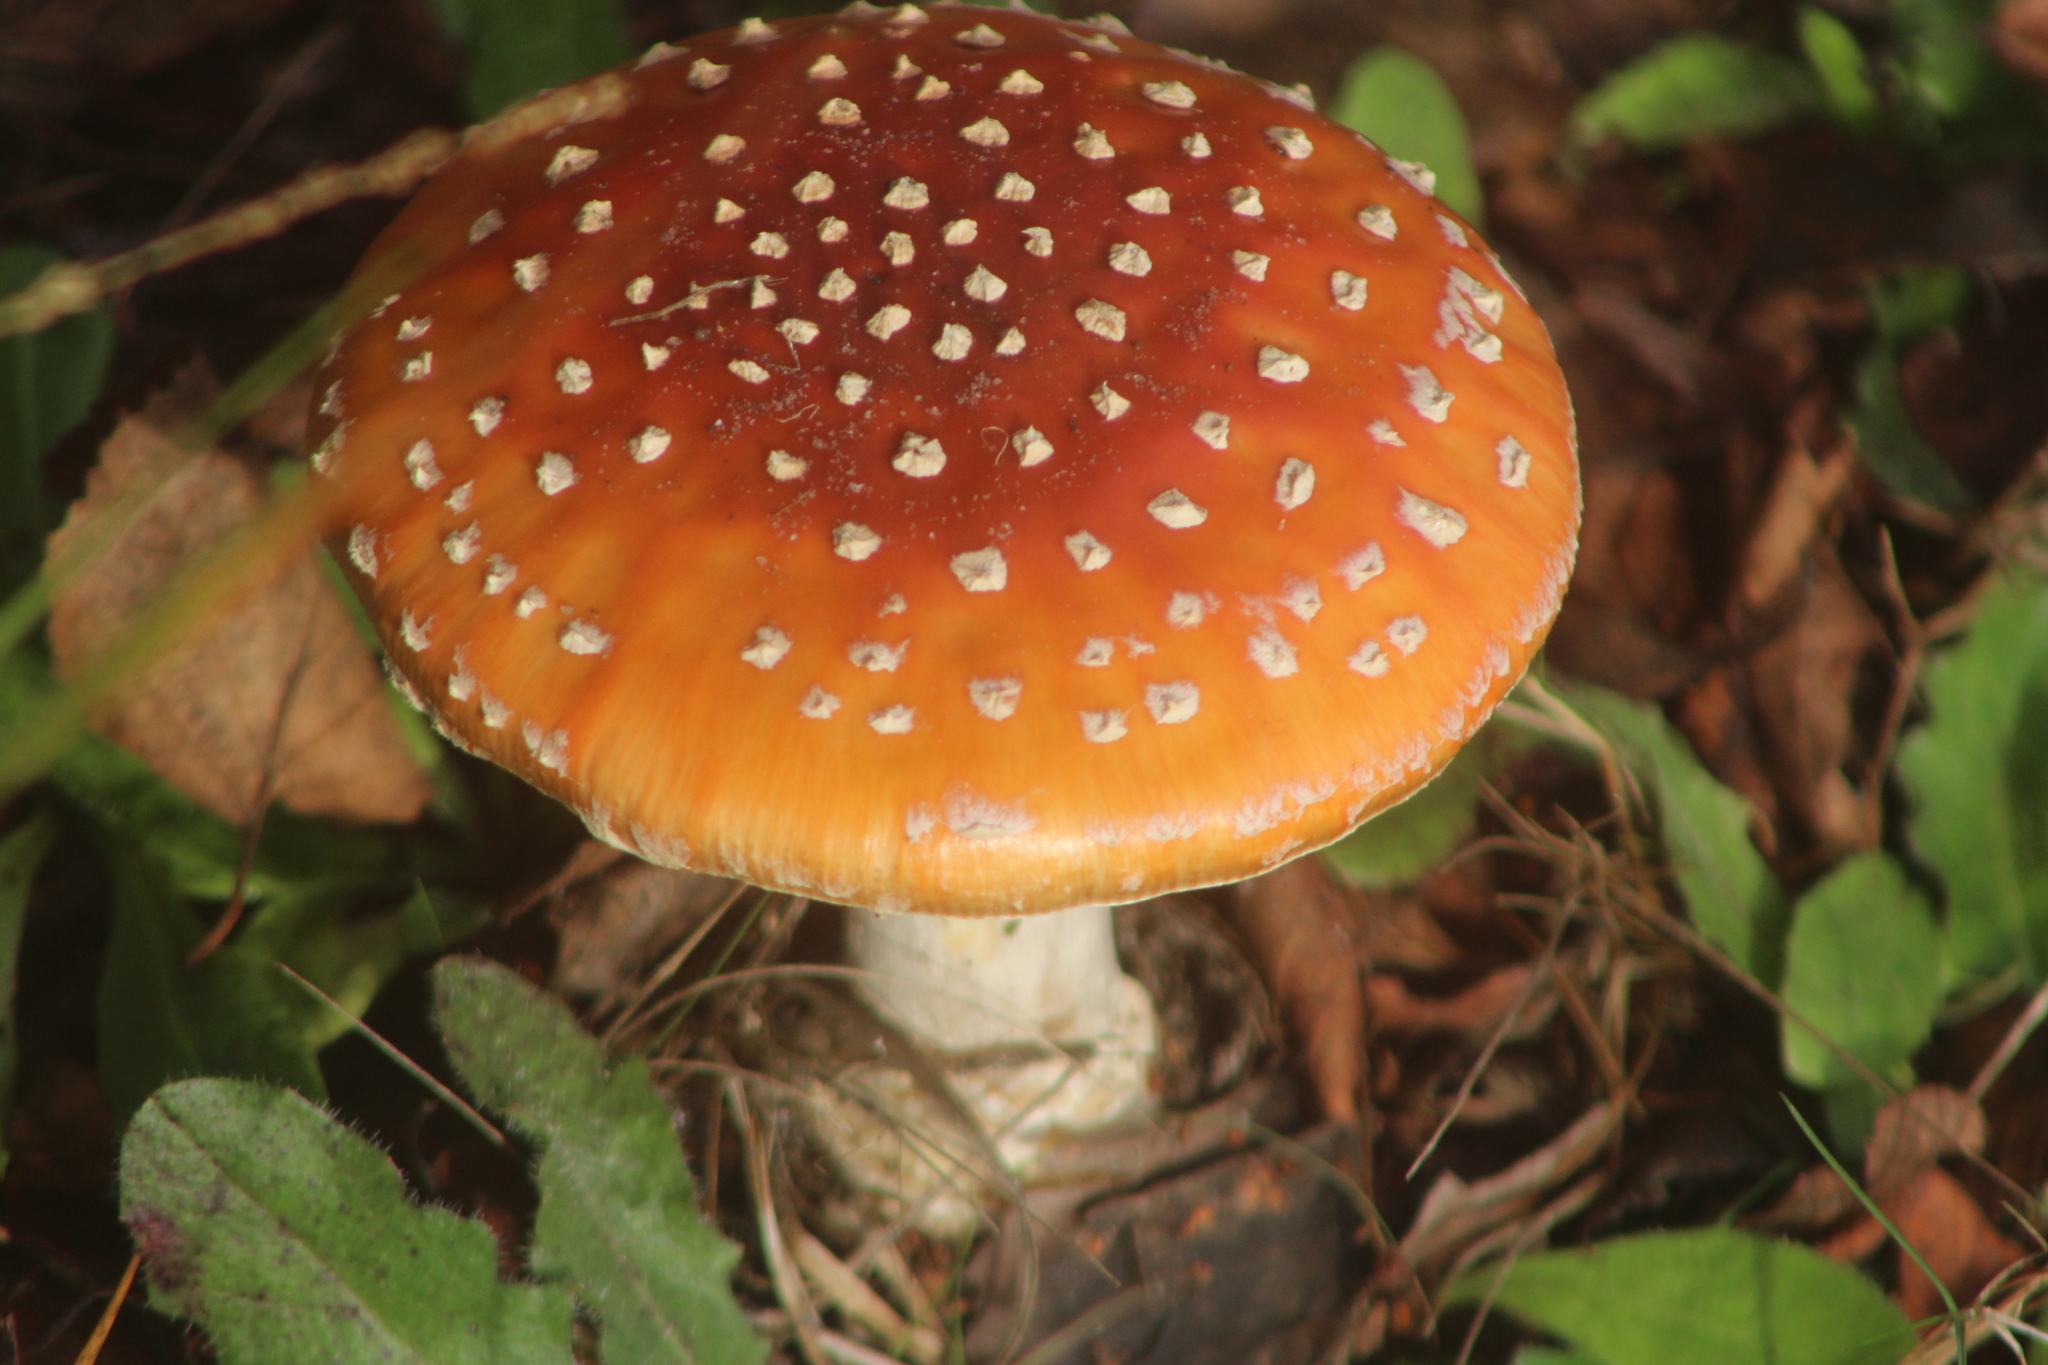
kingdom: Fungi
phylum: Basidiomycota
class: Agaricomycetes
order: Agaricales
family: Amanitaceae
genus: Amanita
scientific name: Amanita muscaria
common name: Fly agaric
